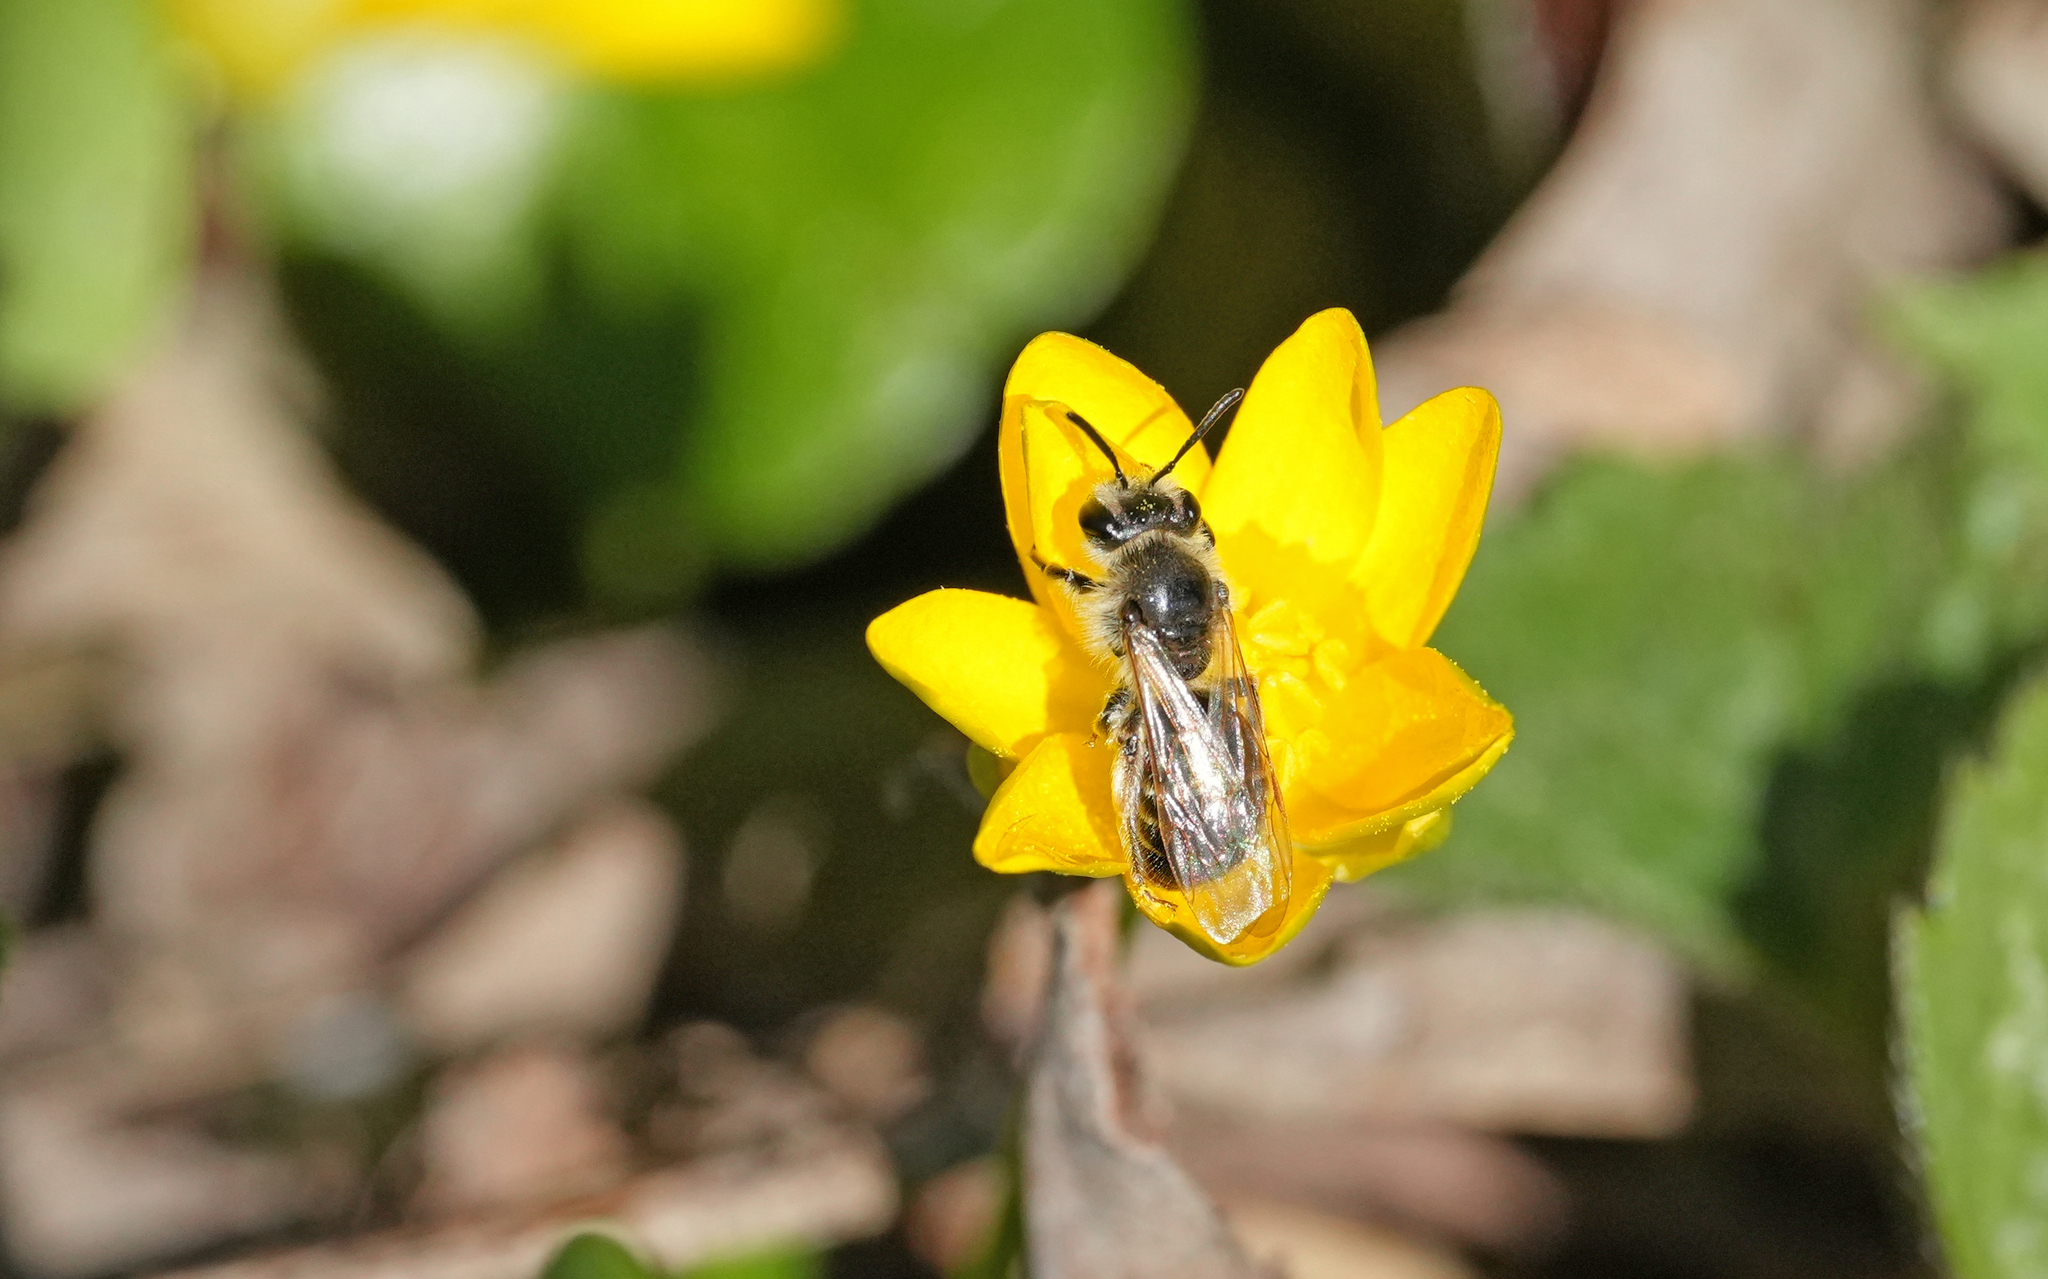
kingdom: Animalia
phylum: Arthropoda
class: Insecta
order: Hymenoptera
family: Andrenidae
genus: Andrena
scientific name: Andrena ventralis
